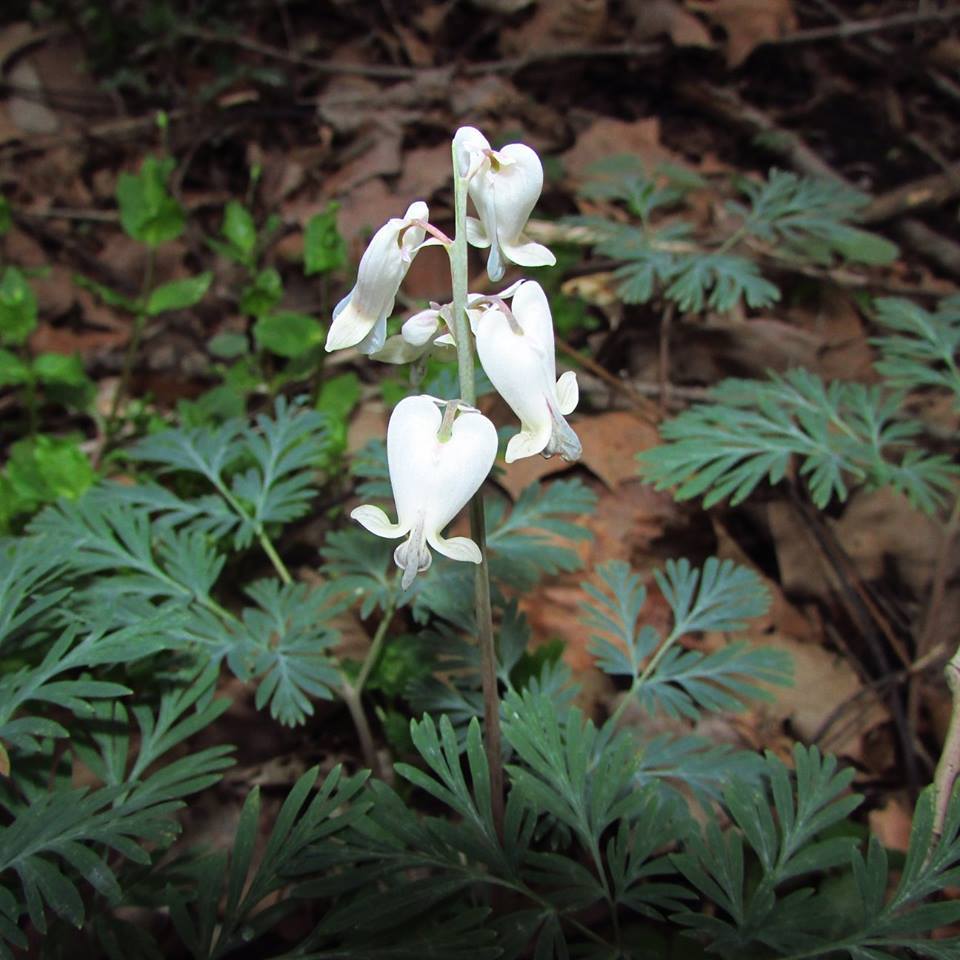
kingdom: Plantae
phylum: Tracheophyta
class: Magnoliopsida
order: Ranunculales
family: Papaveraceae
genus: Dicentra
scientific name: Dicentra canadensis
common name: Squirrel-corn
